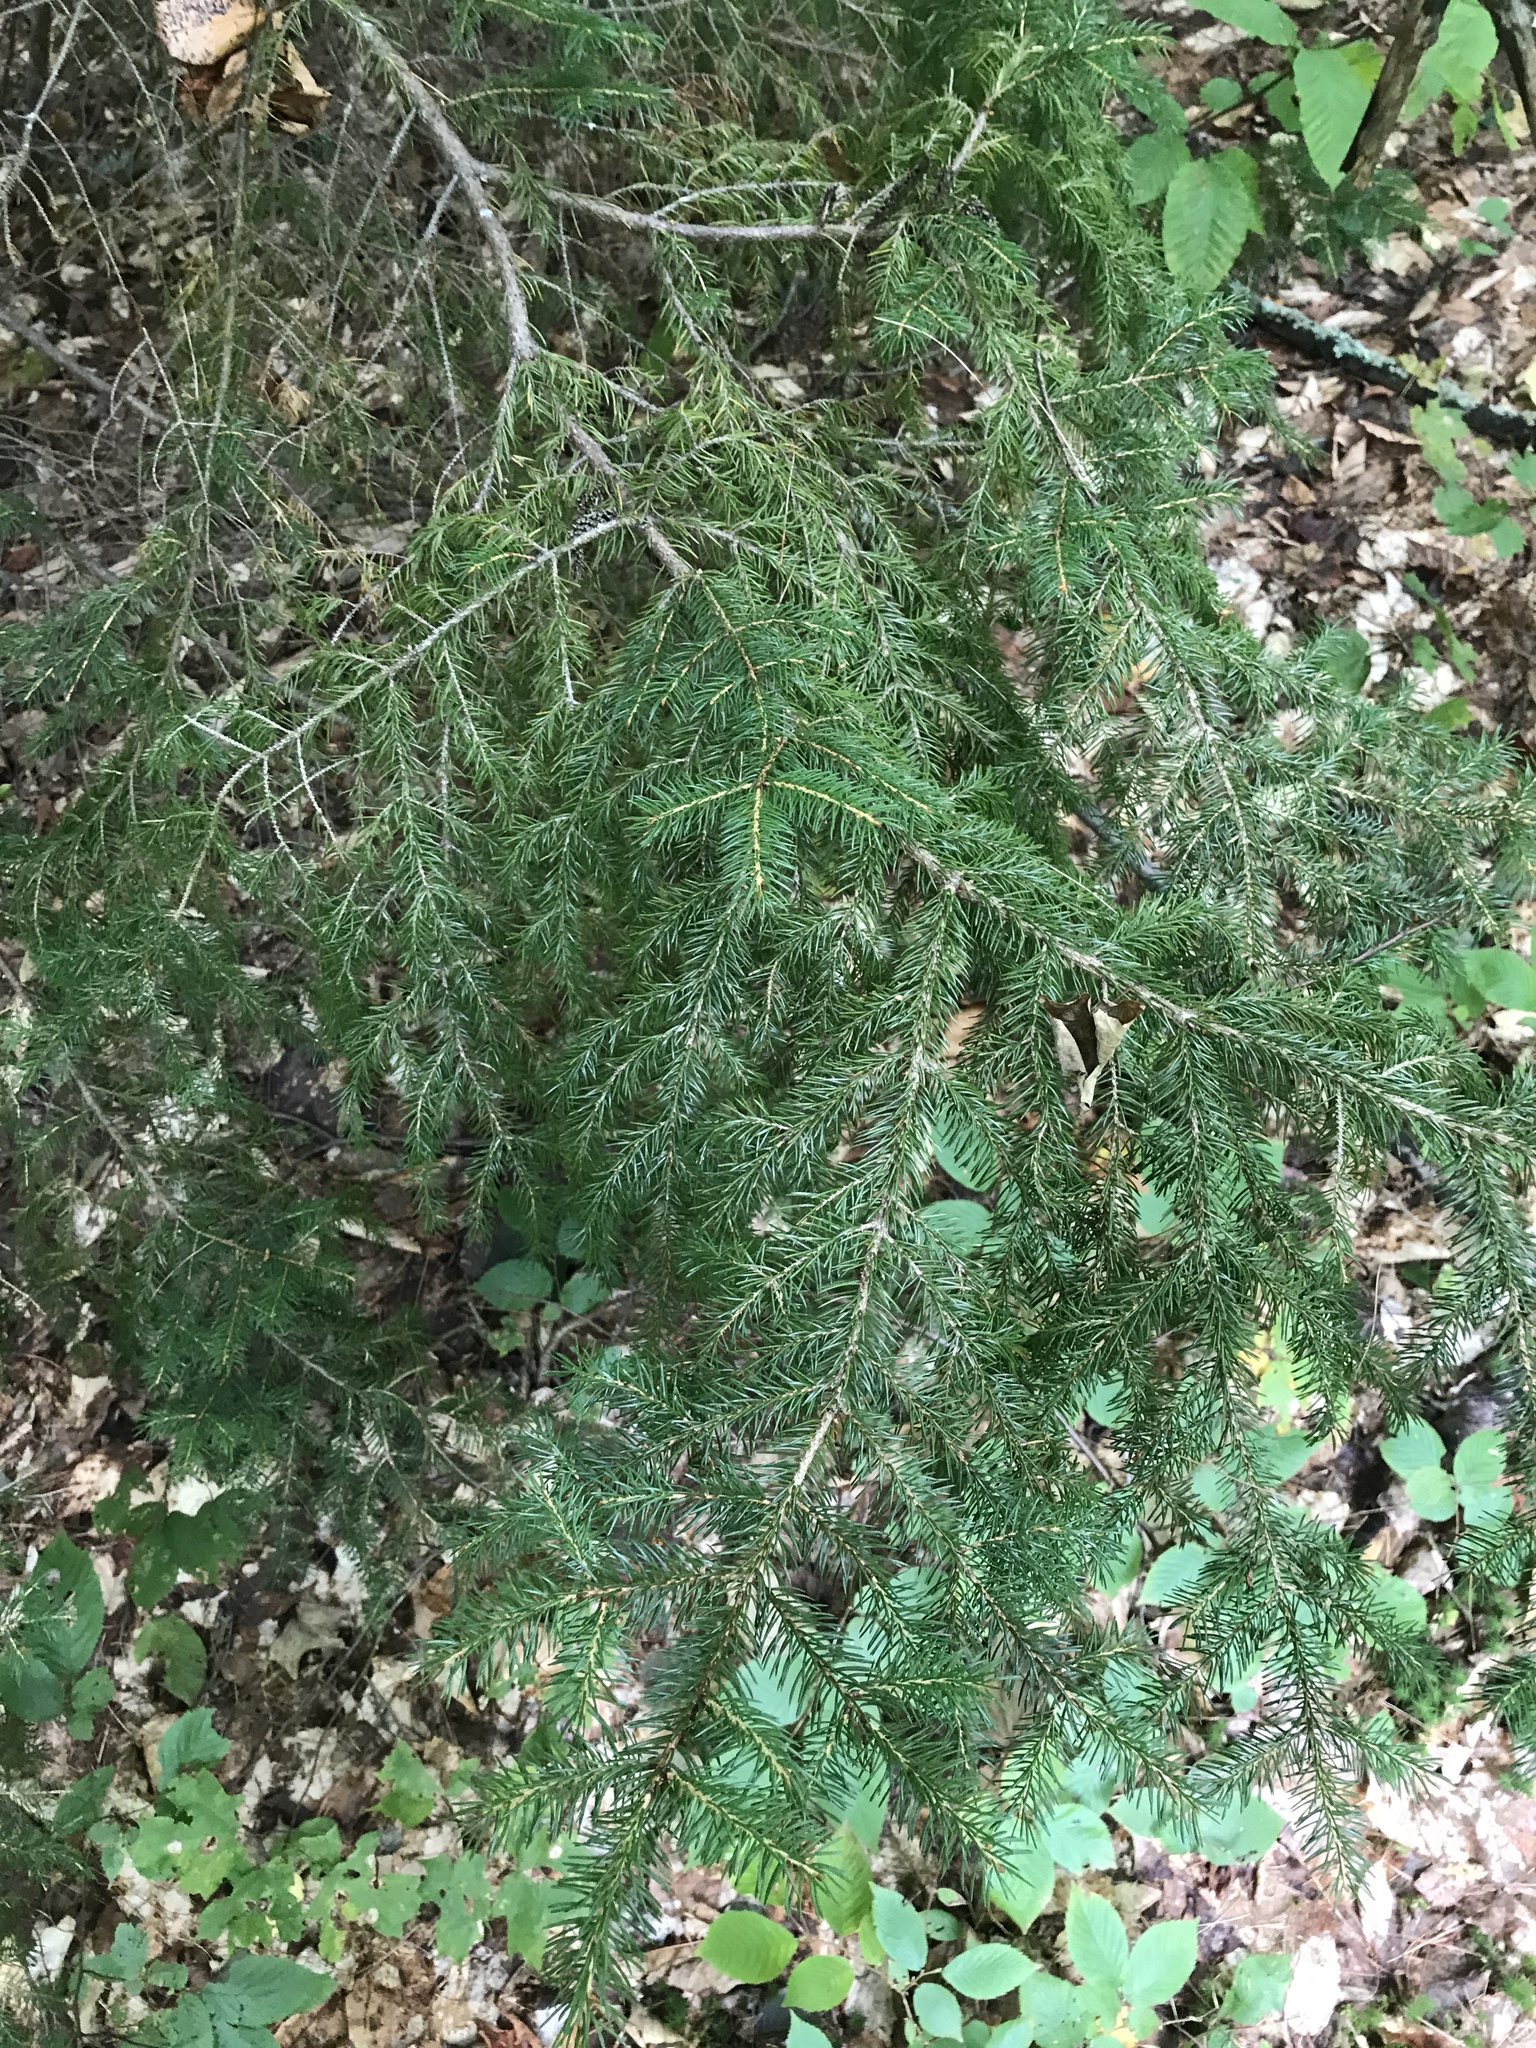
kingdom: Plantae
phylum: Tracheophyta
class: Pinopsida
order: Pinales
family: Pinaceae
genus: Picea
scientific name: Picea rubens
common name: Red spruce
